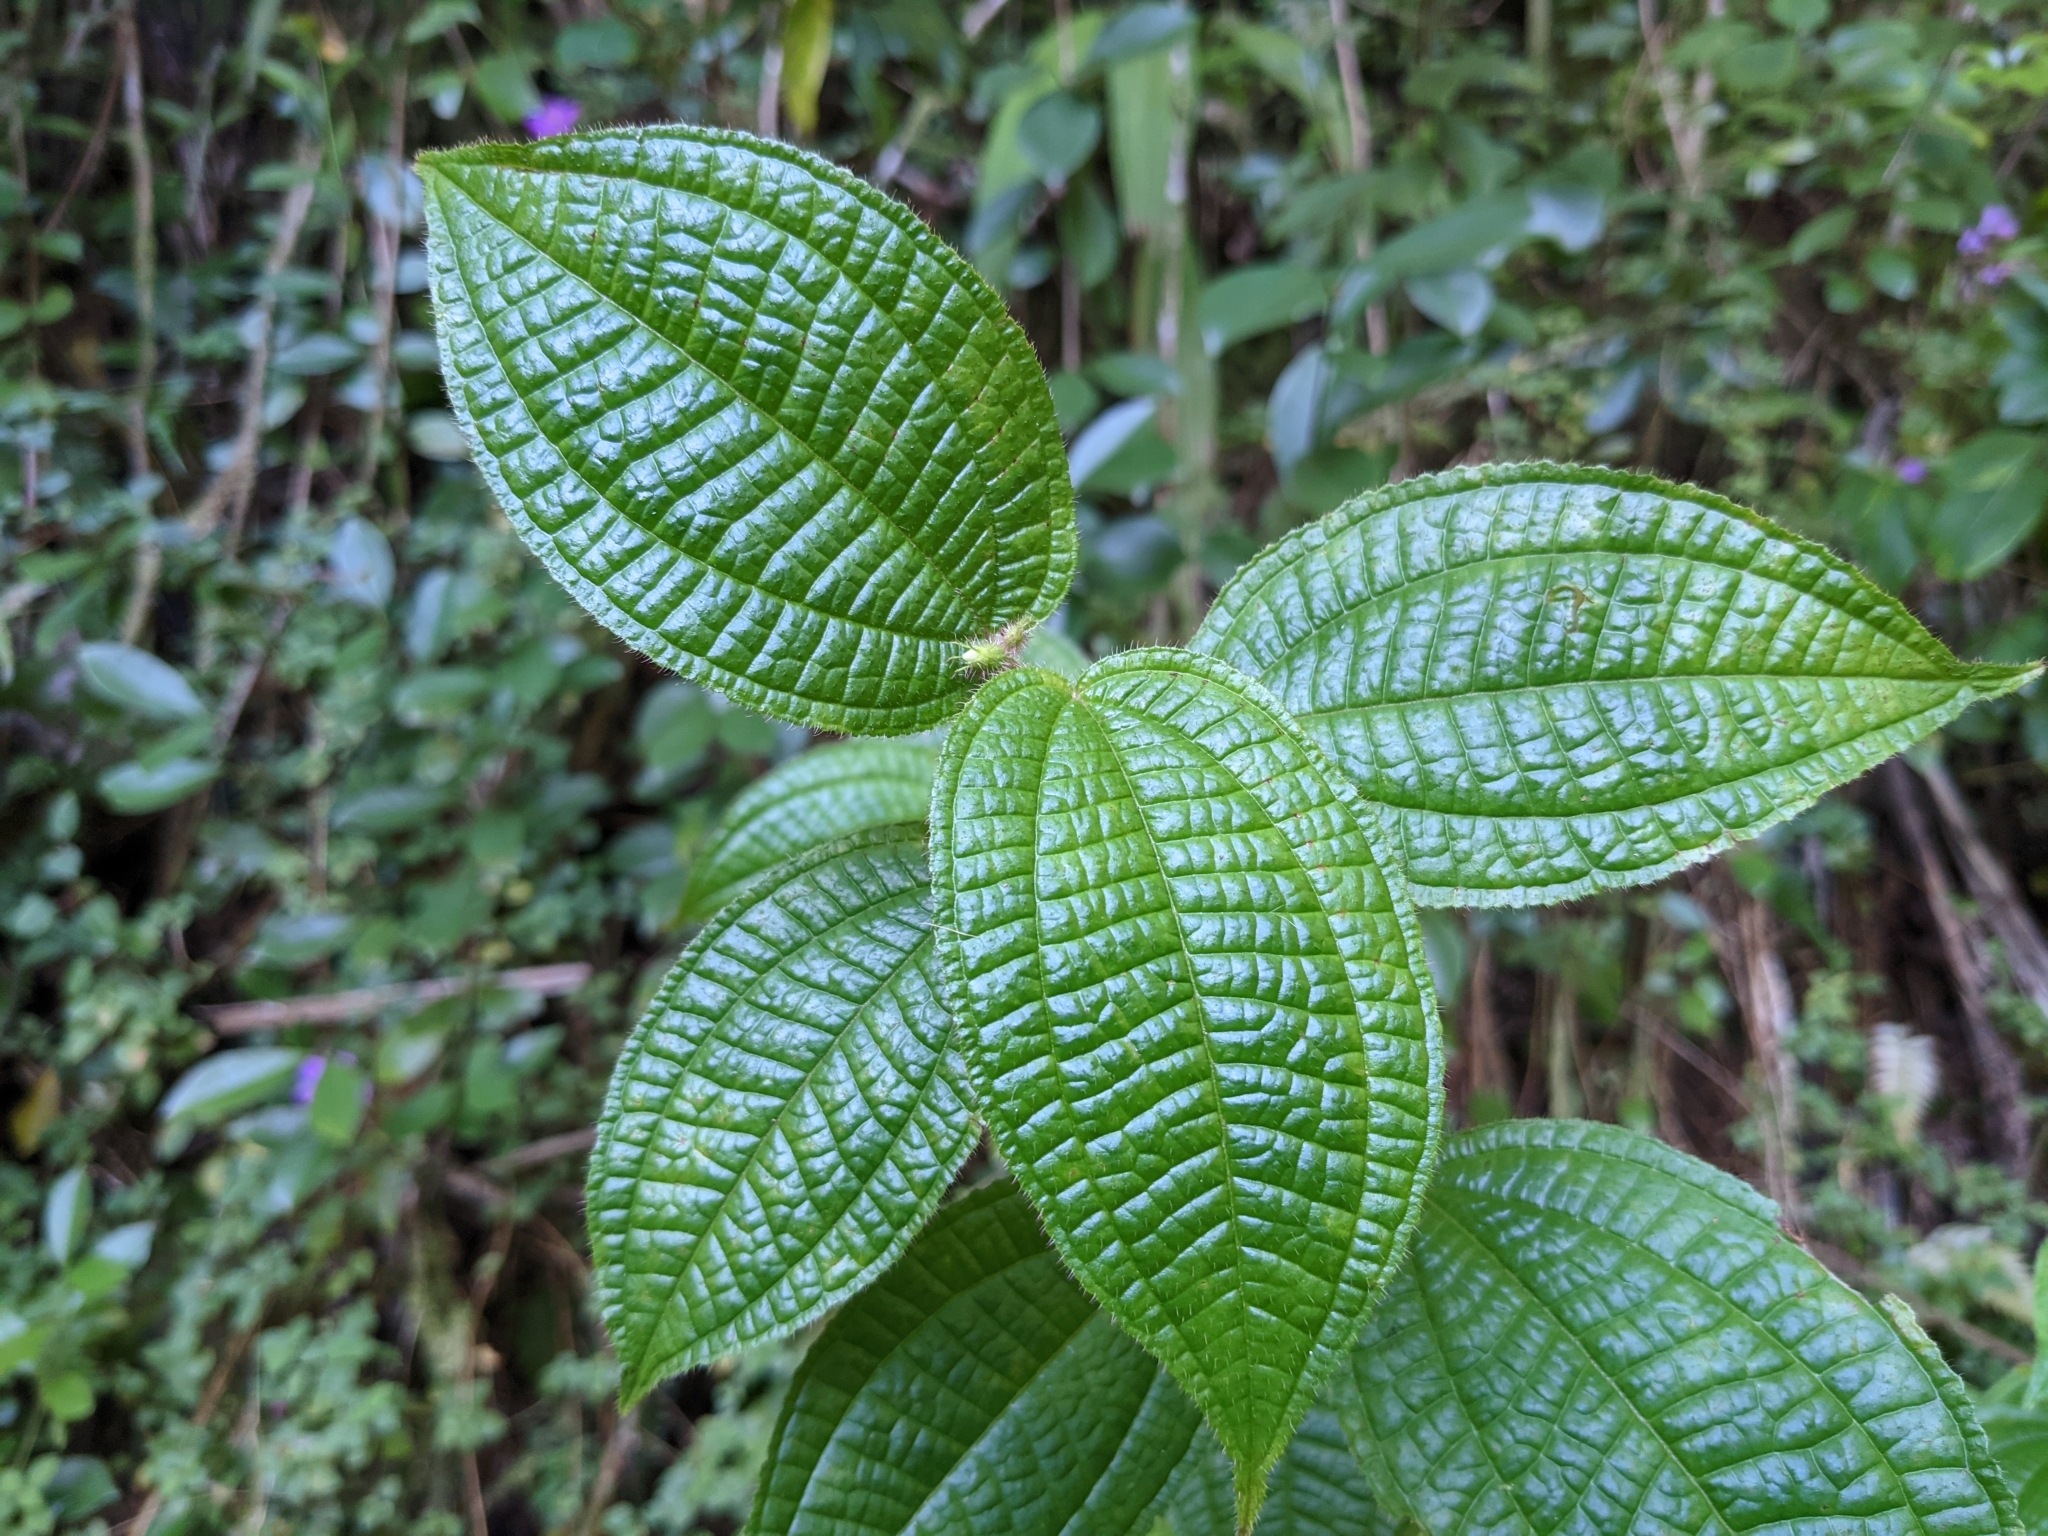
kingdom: Plantae
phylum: Tracheophyta
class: Magnoliopsida
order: Myrtales
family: Melastomataceae
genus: Miconia
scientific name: Miconia crenata
